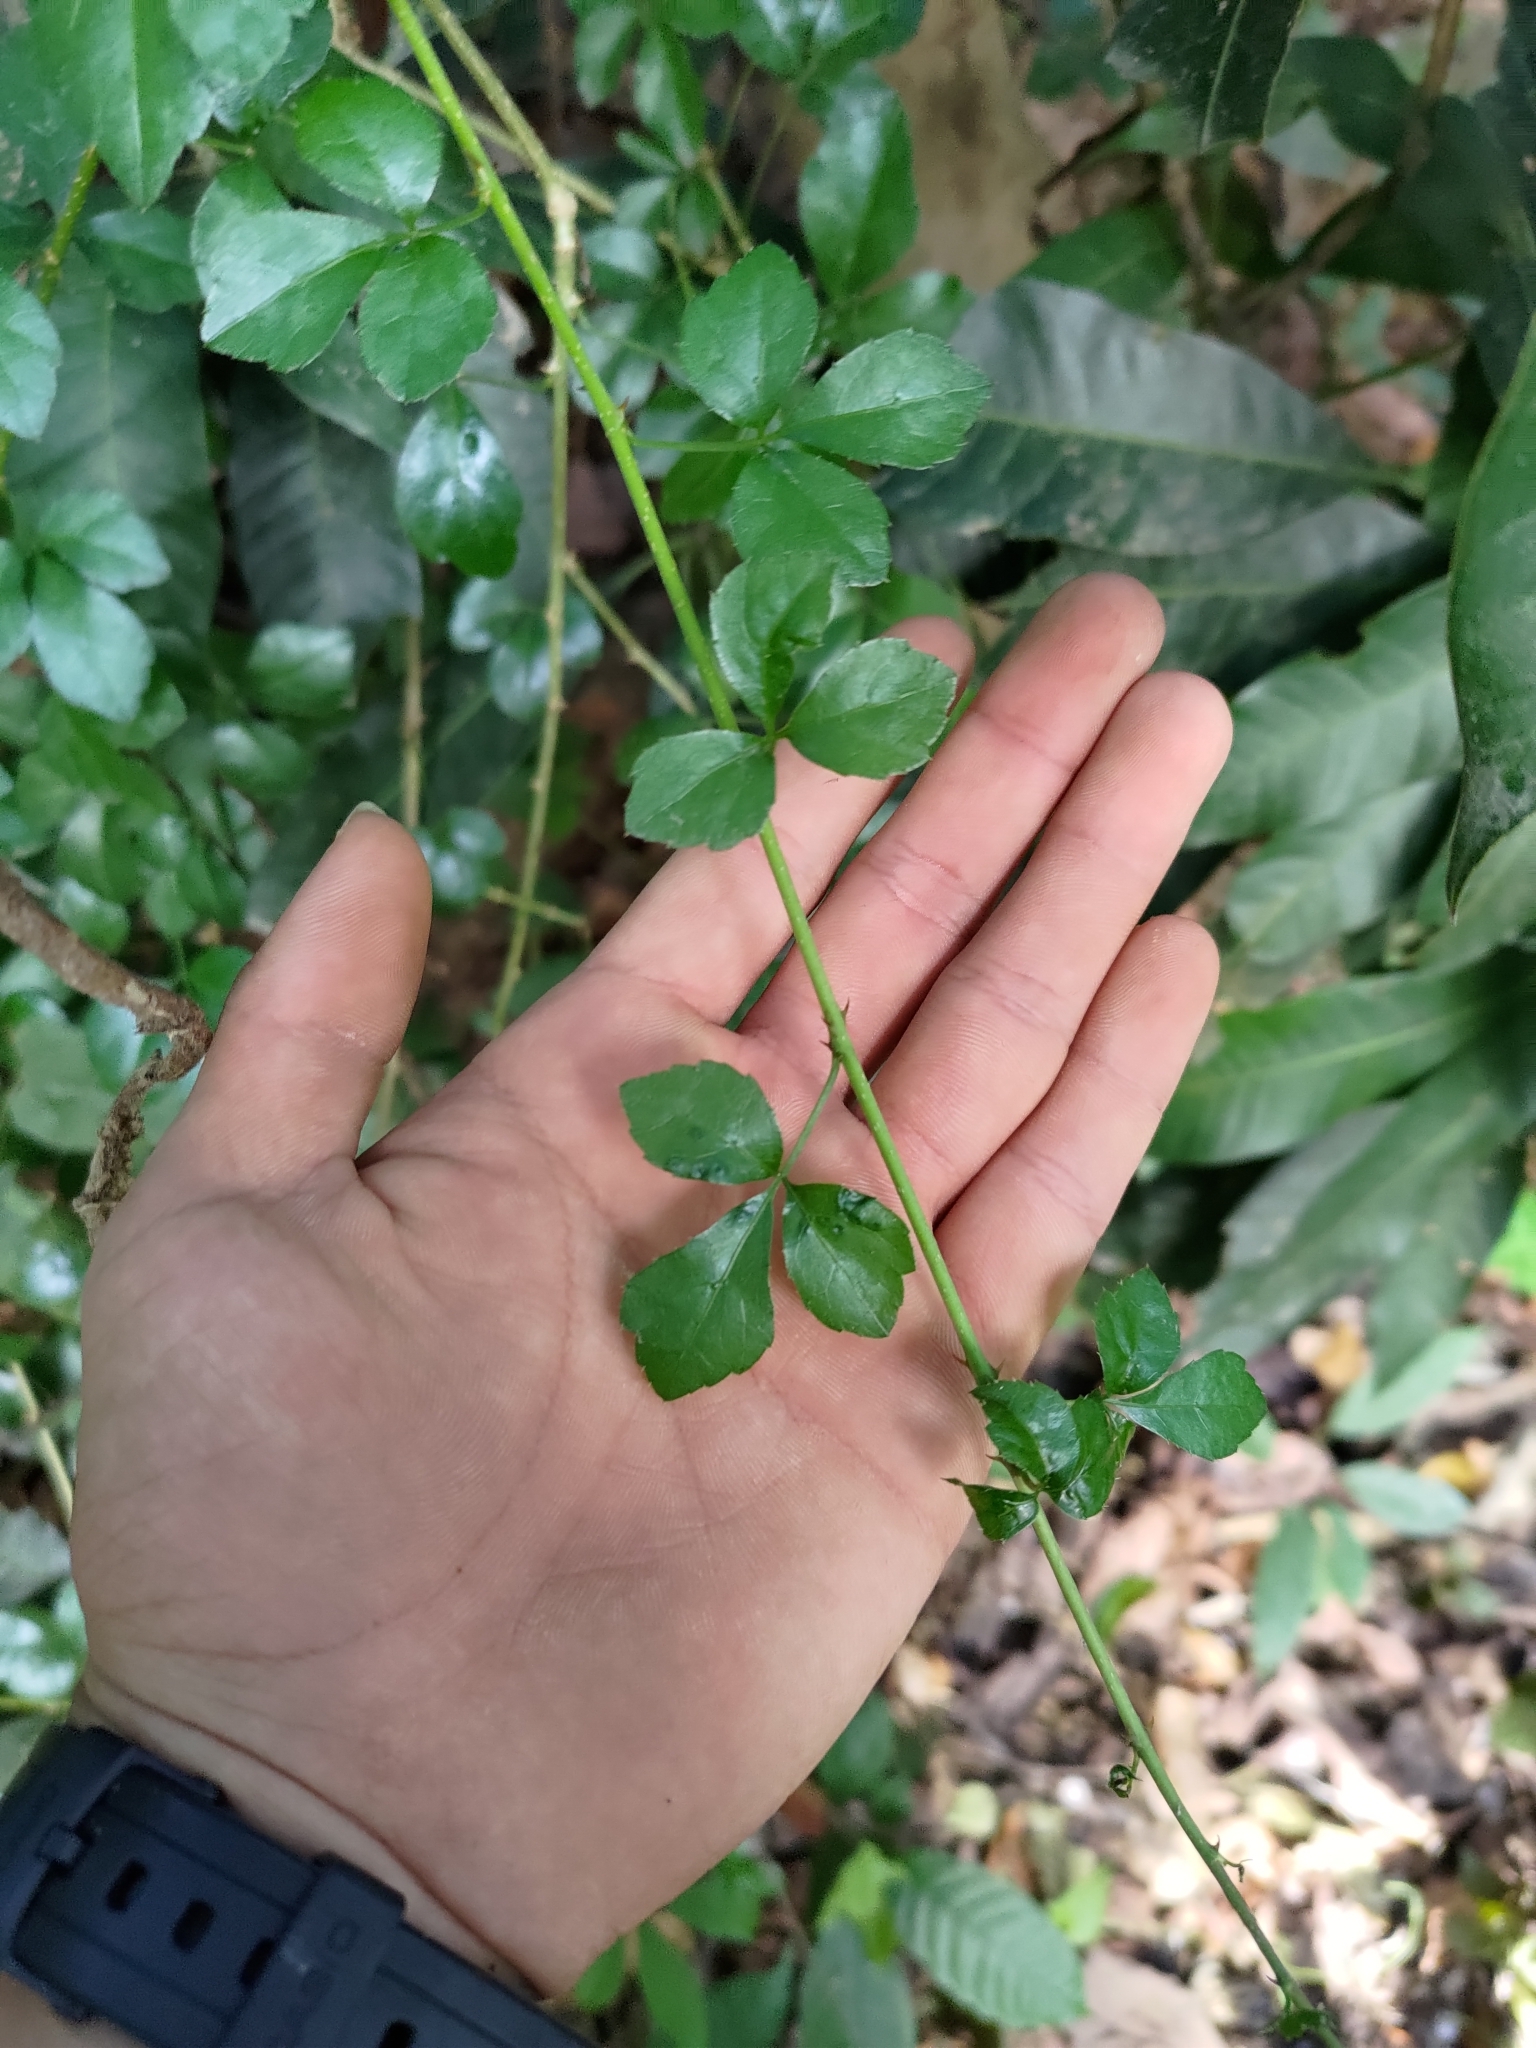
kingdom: Plantae
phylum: Tracheophyta
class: Magnoliopsida
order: Apiales
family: Araliaceae
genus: Eleutherococcus
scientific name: Eleutherococcus trifoliatus
